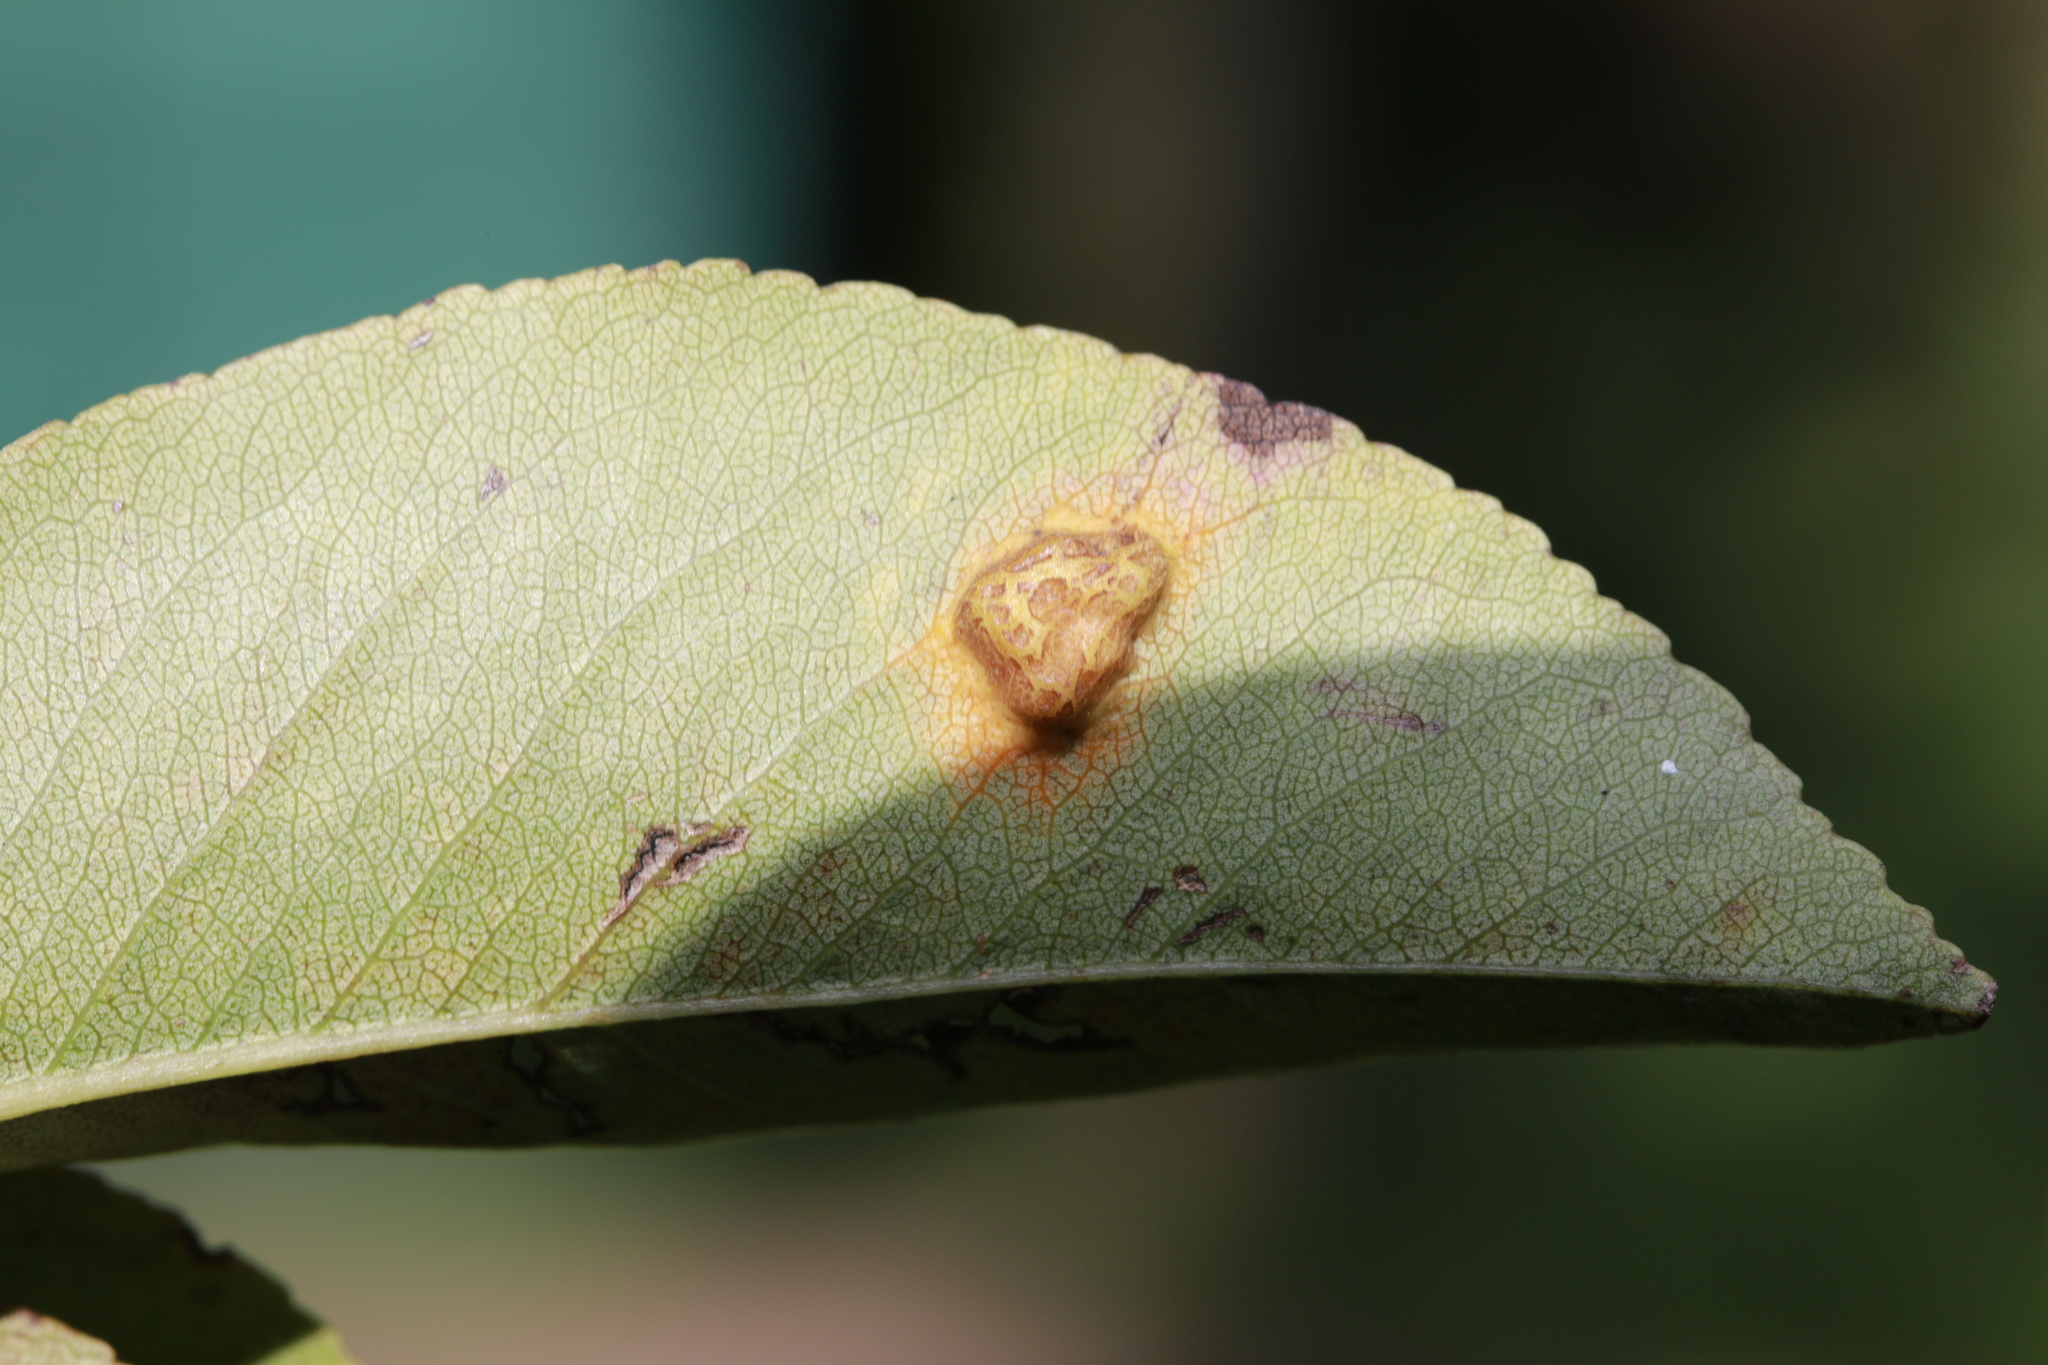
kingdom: Fungi
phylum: Basidiomycota
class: Pucciniomycetes
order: Pucciniales
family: Gymnosporangiaceae
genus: Gymnosporangium
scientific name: Gymnosporangium sabinae
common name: Pear trellis rust fungus
